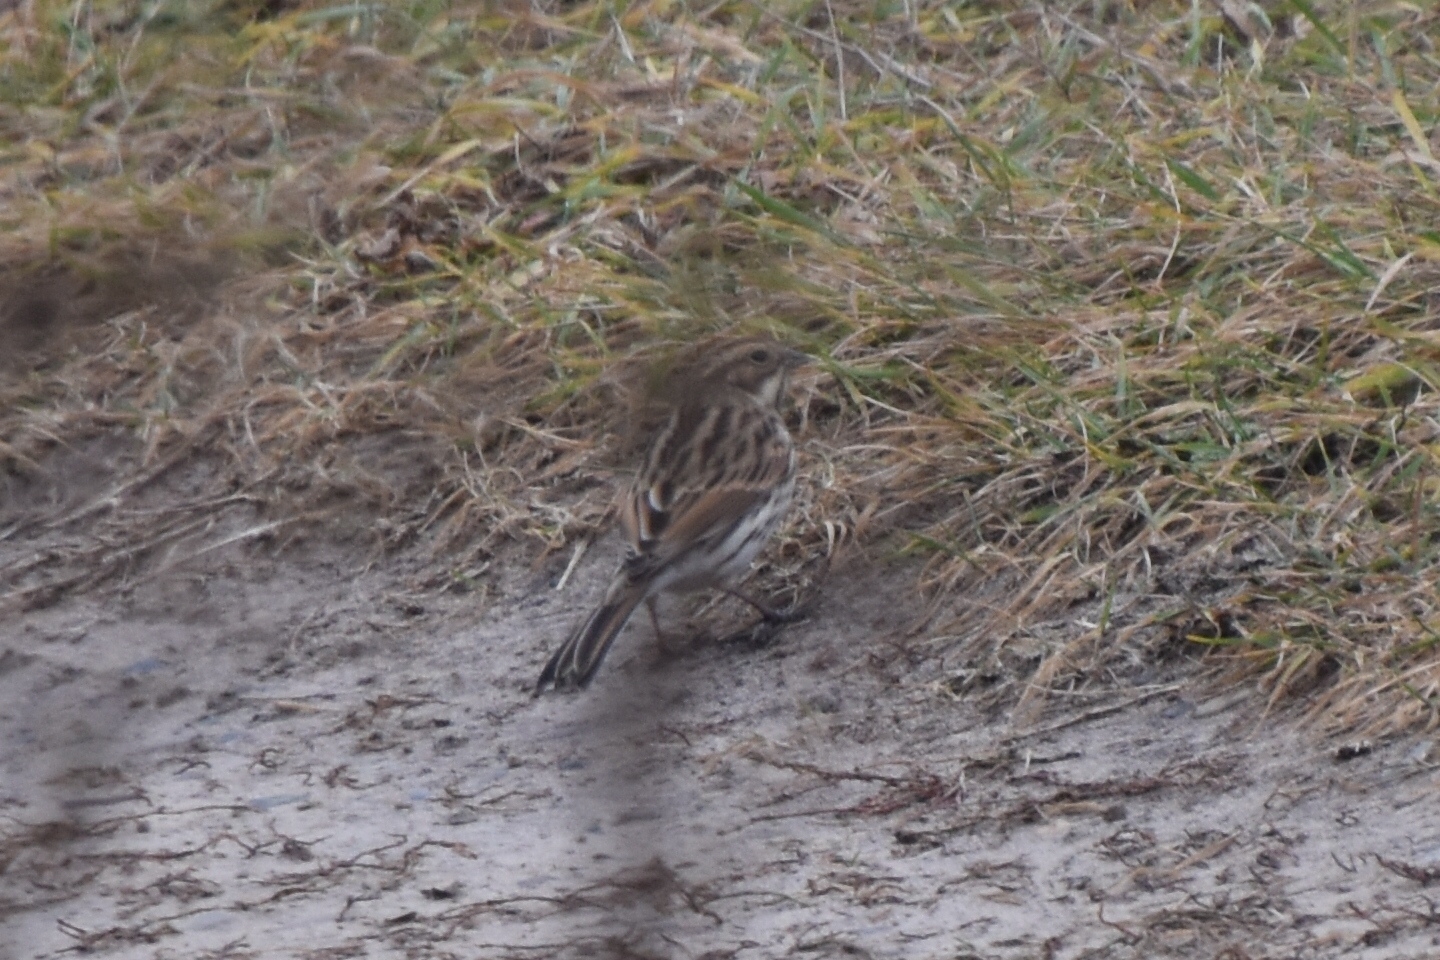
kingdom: Animalia
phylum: Chordata
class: Aves
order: Passeriformes
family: Emberizidae
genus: Emberiza
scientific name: Emberiza schoeniclus
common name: Reed bunting
